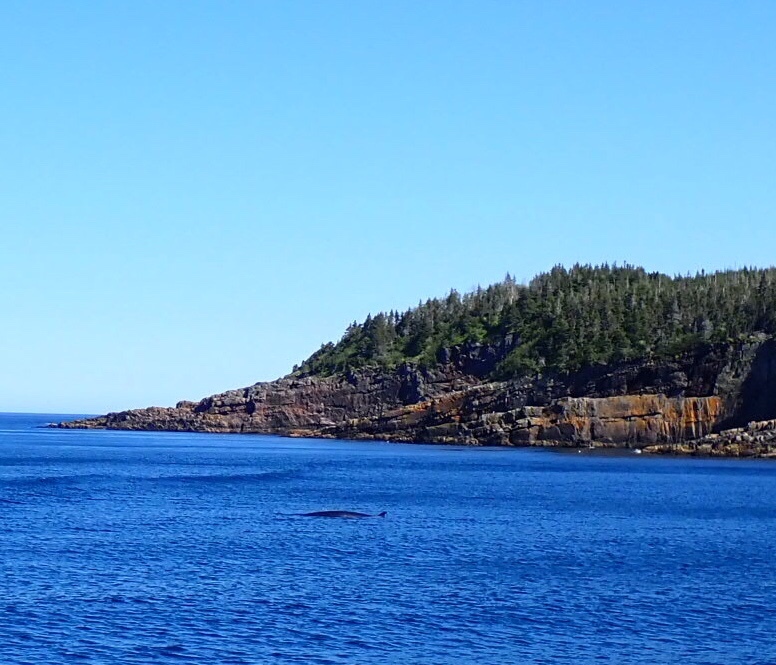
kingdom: Animalia
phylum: Chordata
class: Mammalia
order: Cetacea
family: Balaenopteridae
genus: Balaenoptera
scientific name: Balaenoptera acutorostrata
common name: Common minke whale
